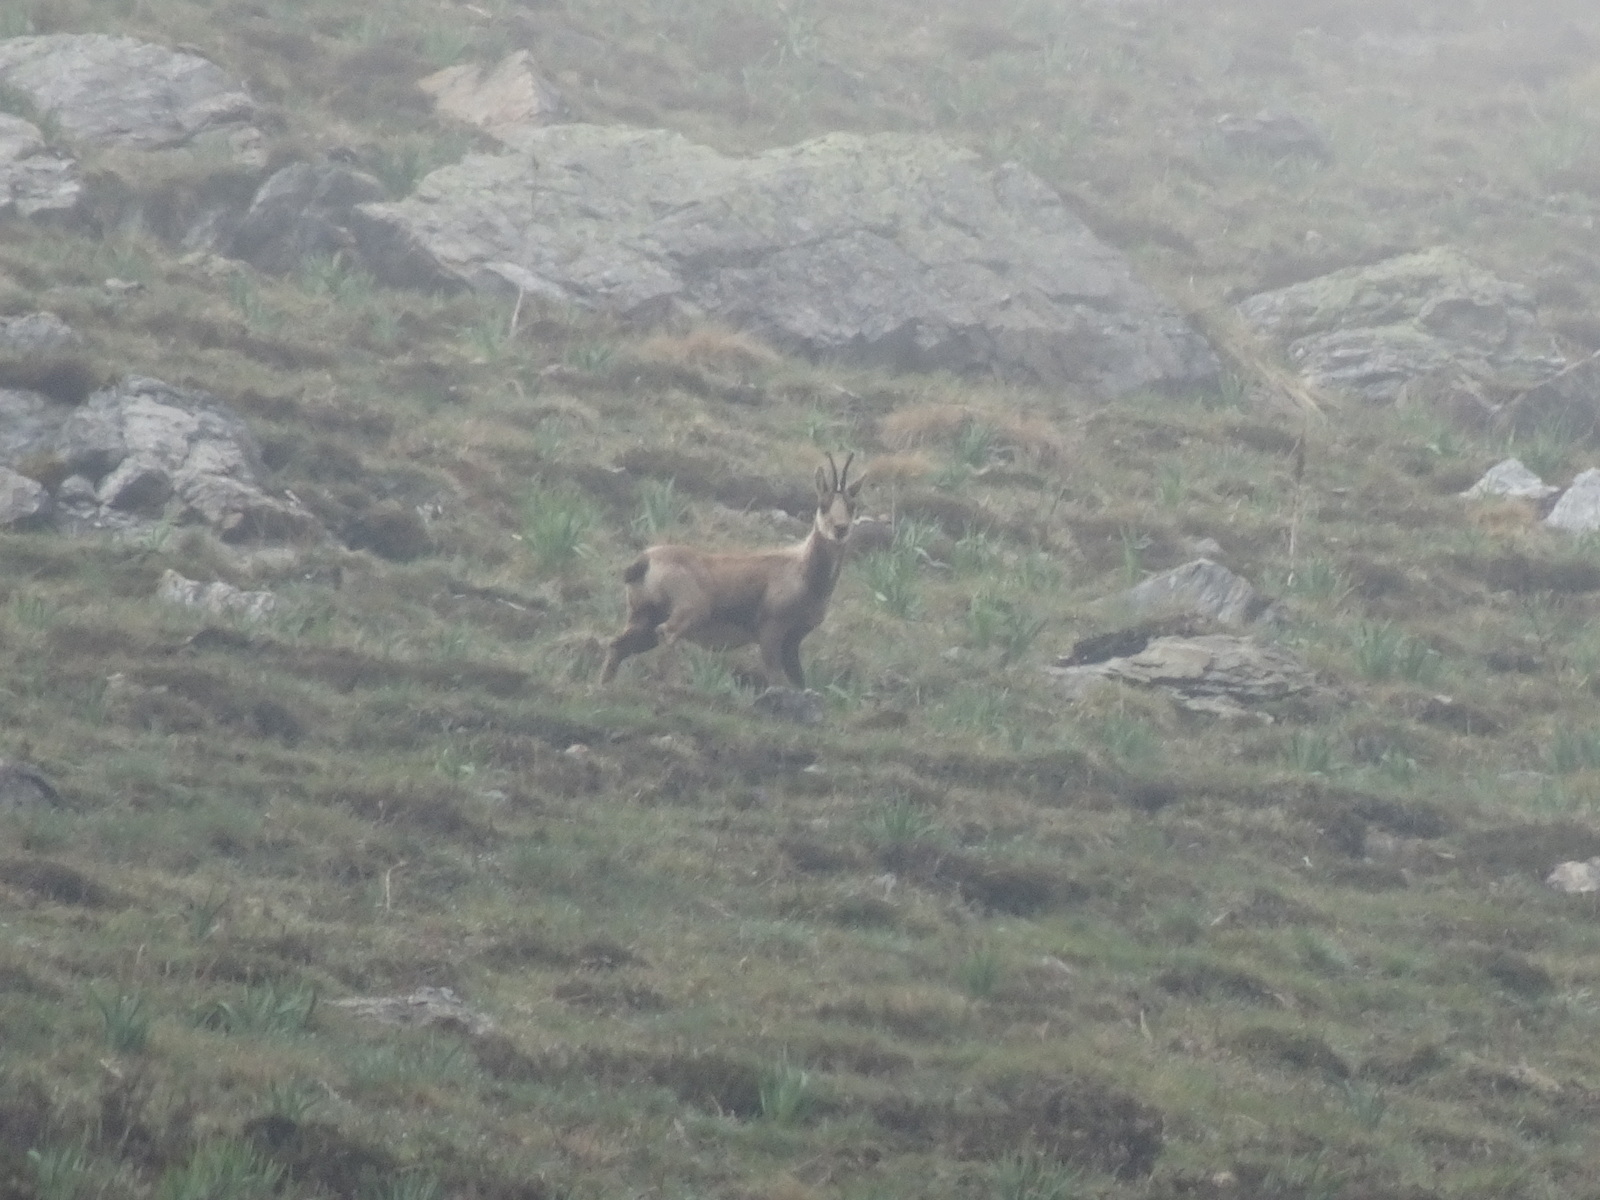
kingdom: Animalia
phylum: Chordata
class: Mammalia
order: Artiodactyla
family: Bovidae
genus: Rupicapra
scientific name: Rupicapra pyrenaica
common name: Pyrenean chamois
